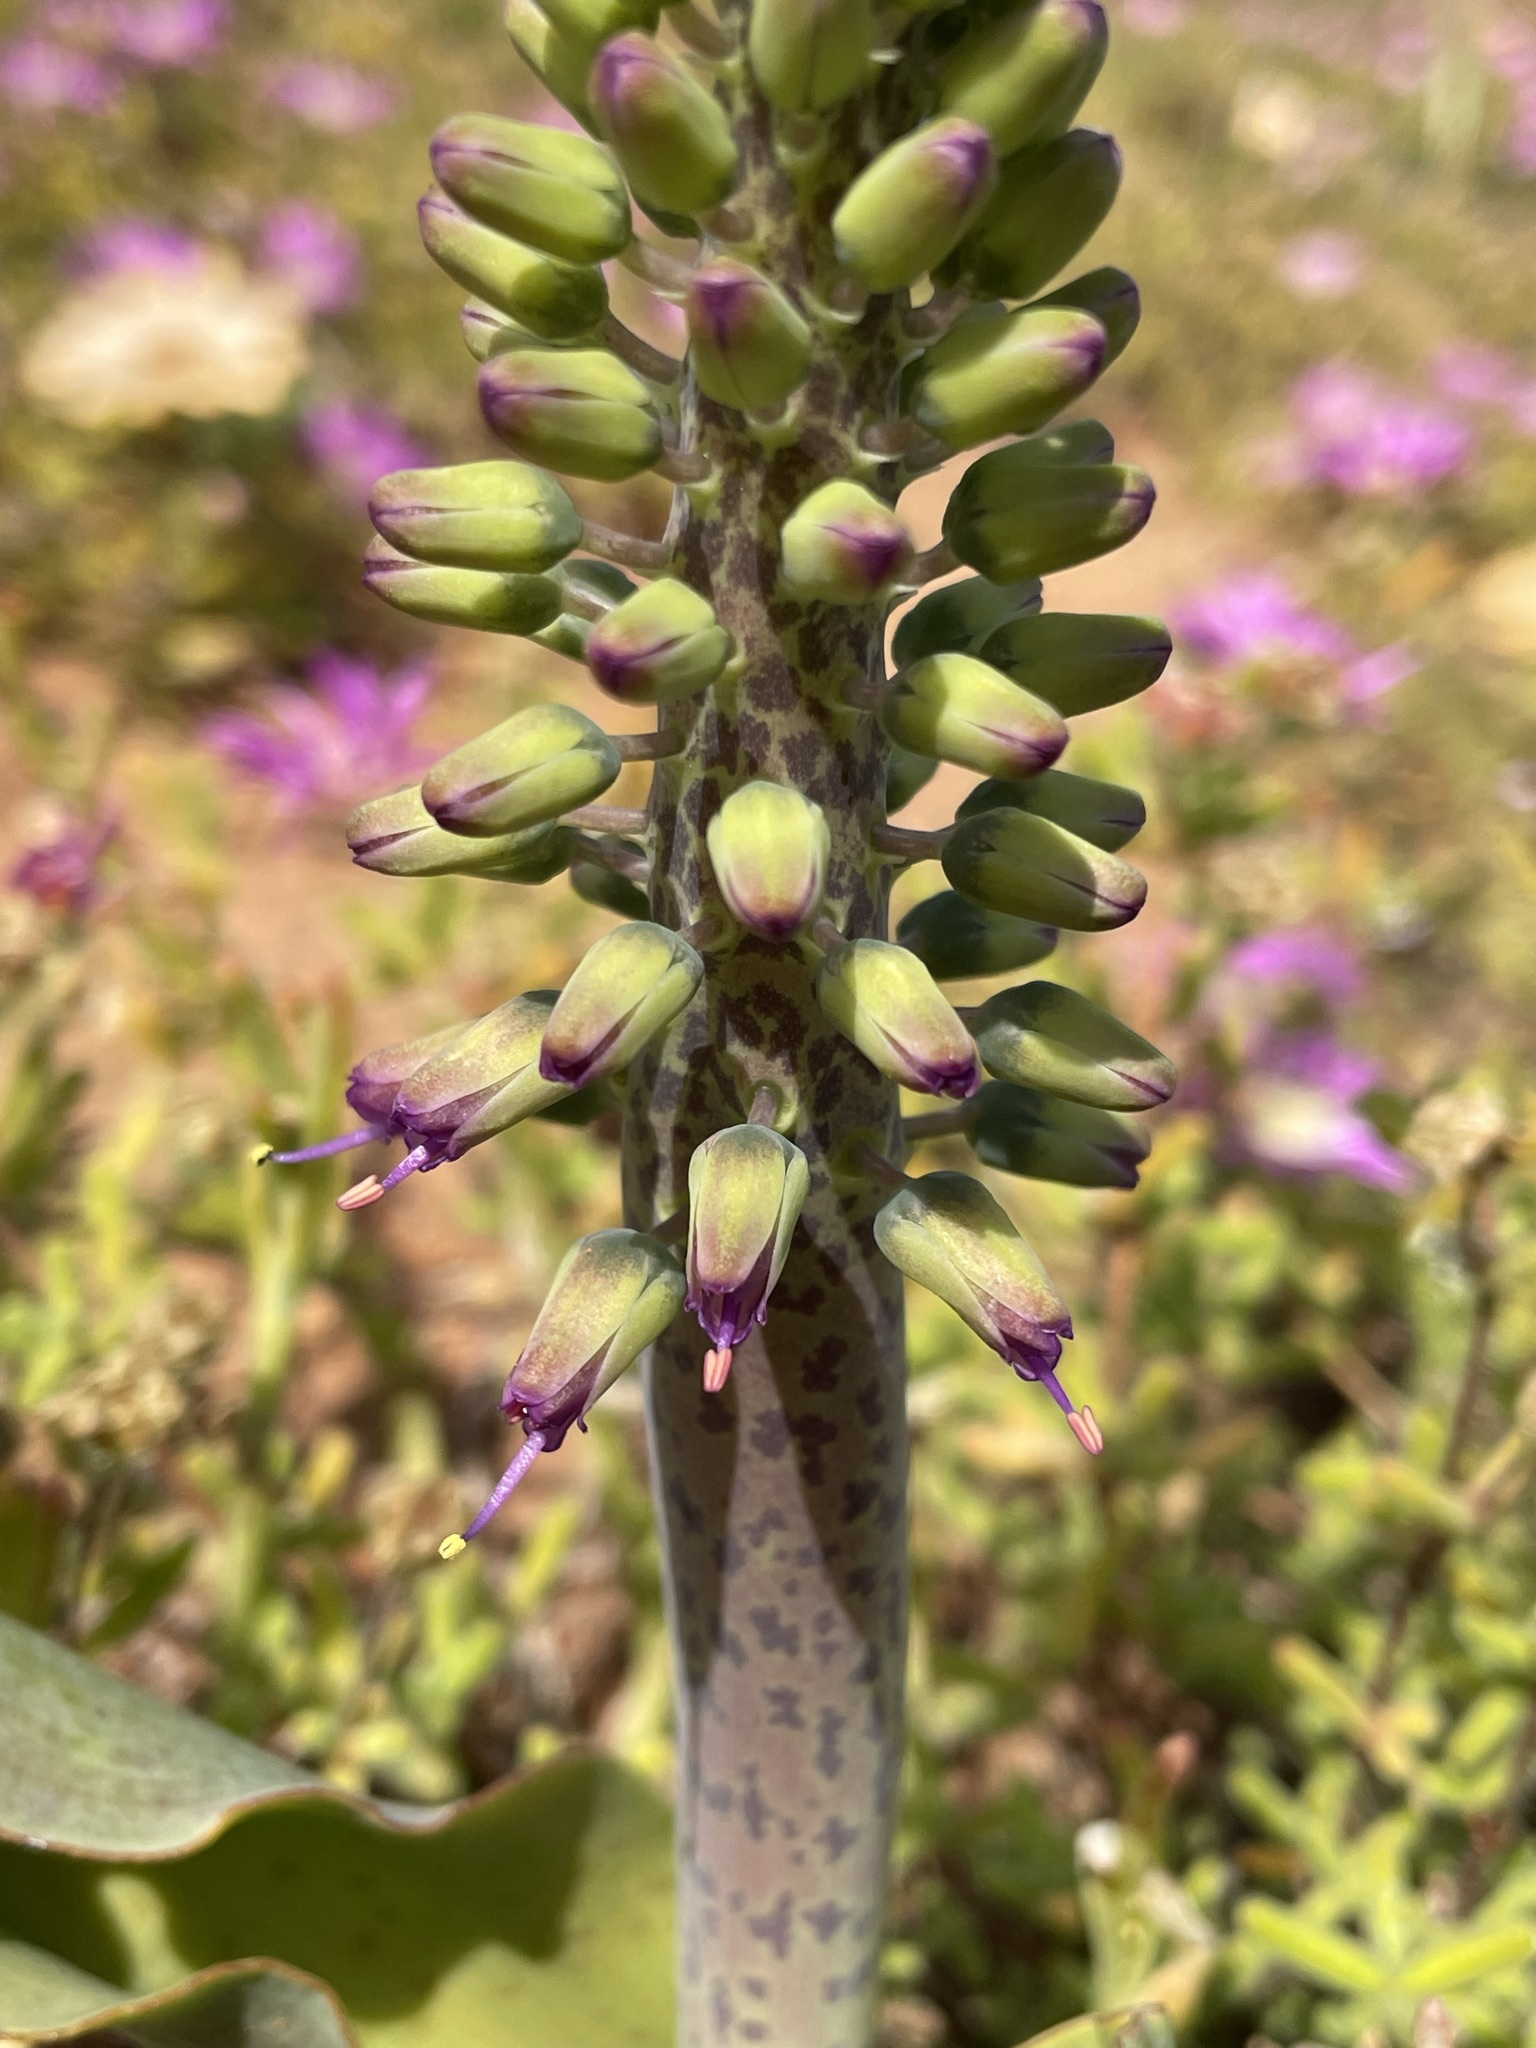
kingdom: Plantae
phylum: Tracheophyta
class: Liliopsida
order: Asparagales
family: Asparagaceae
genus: Lachenalia
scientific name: Lachenalia violacea
